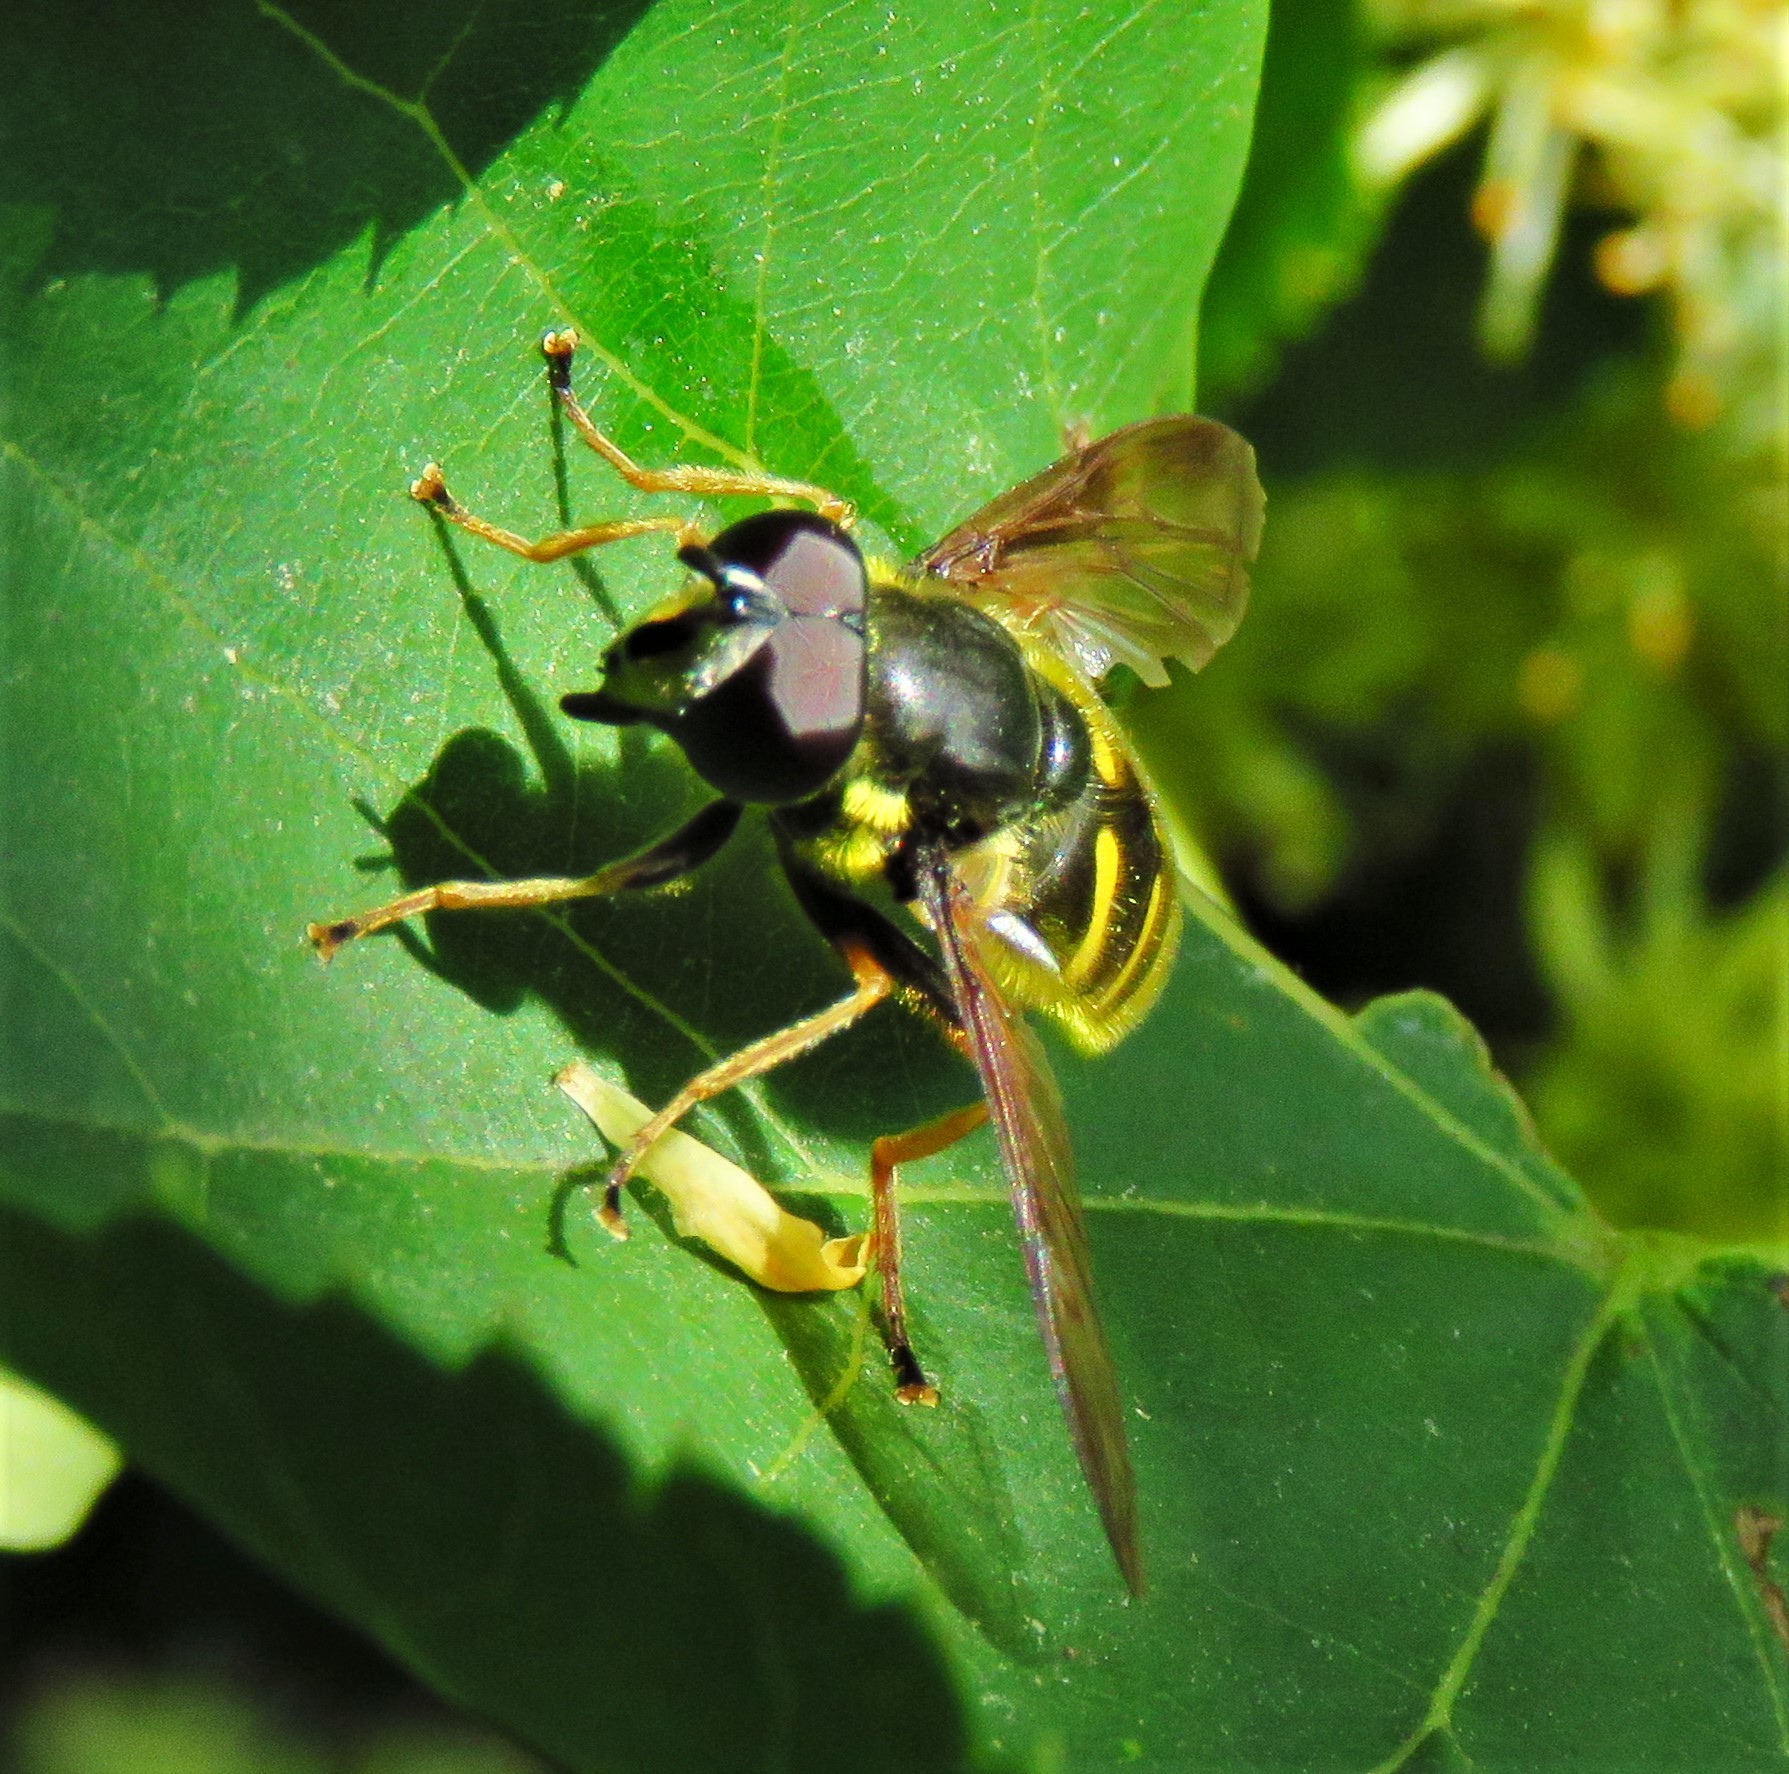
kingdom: Animalia
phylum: Arthropoda
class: Insecta
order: Diptera
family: Syrphidae
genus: Sericomyia
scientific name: Sericomyia chrysotoxoides
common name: Oblique-banded pond fly
